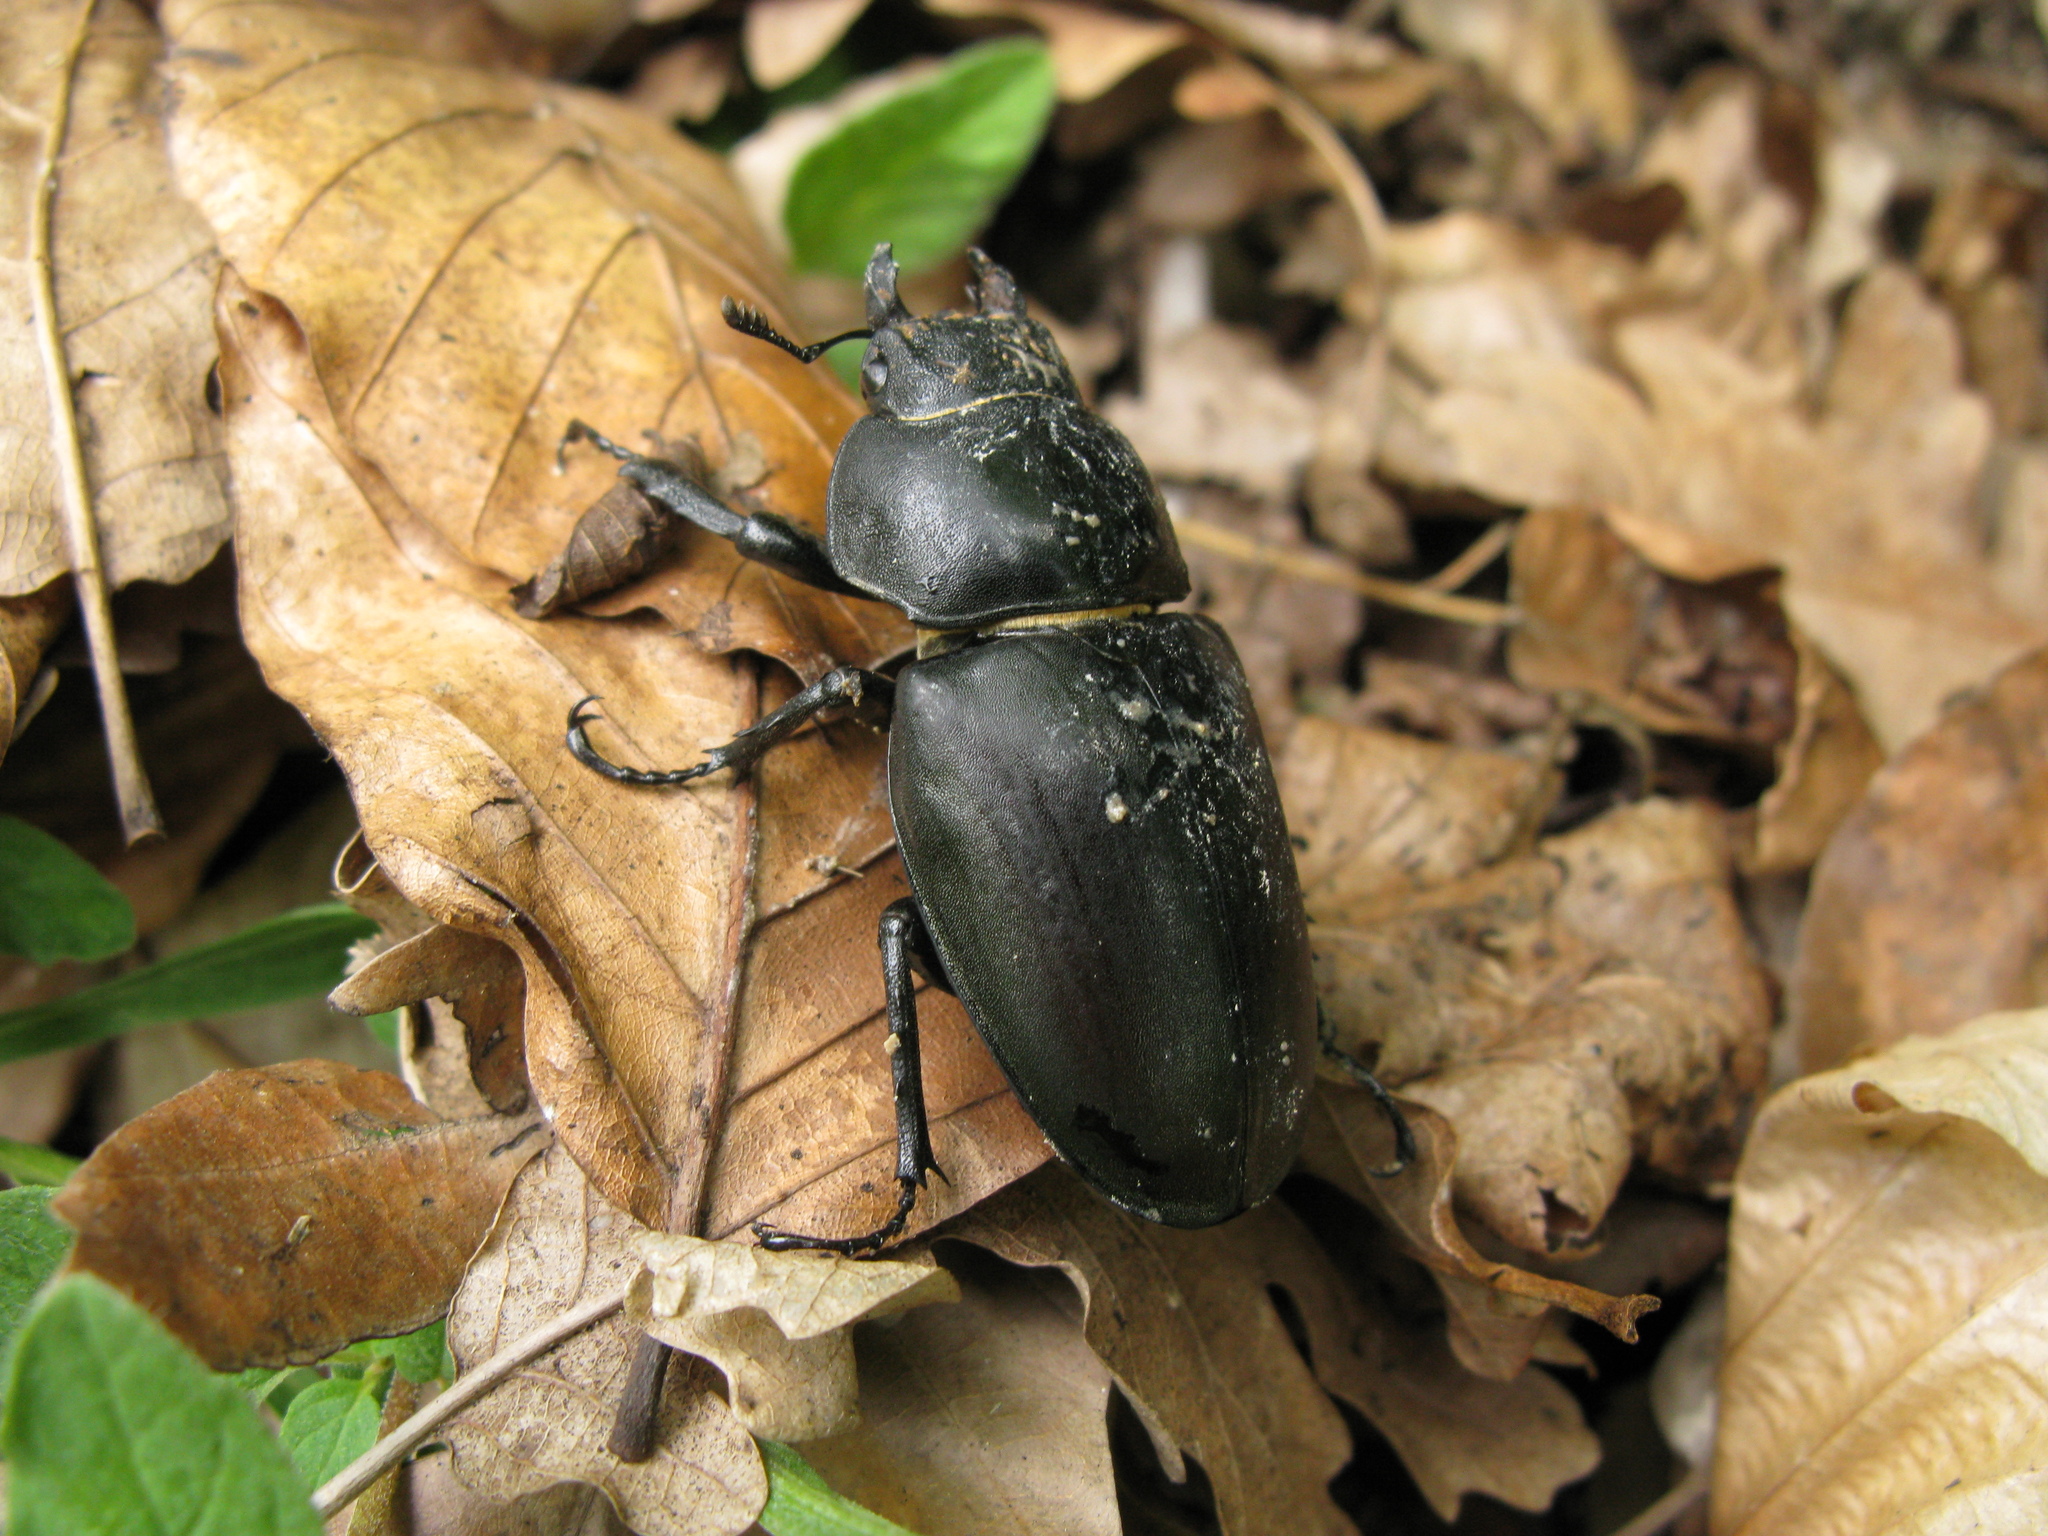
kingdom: Animalia
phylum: Arthropoda
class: Insecta
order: Coleoptera
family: Lucanidae
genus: Lucanus
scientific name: Lucanus cervus
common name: Stag beetle
